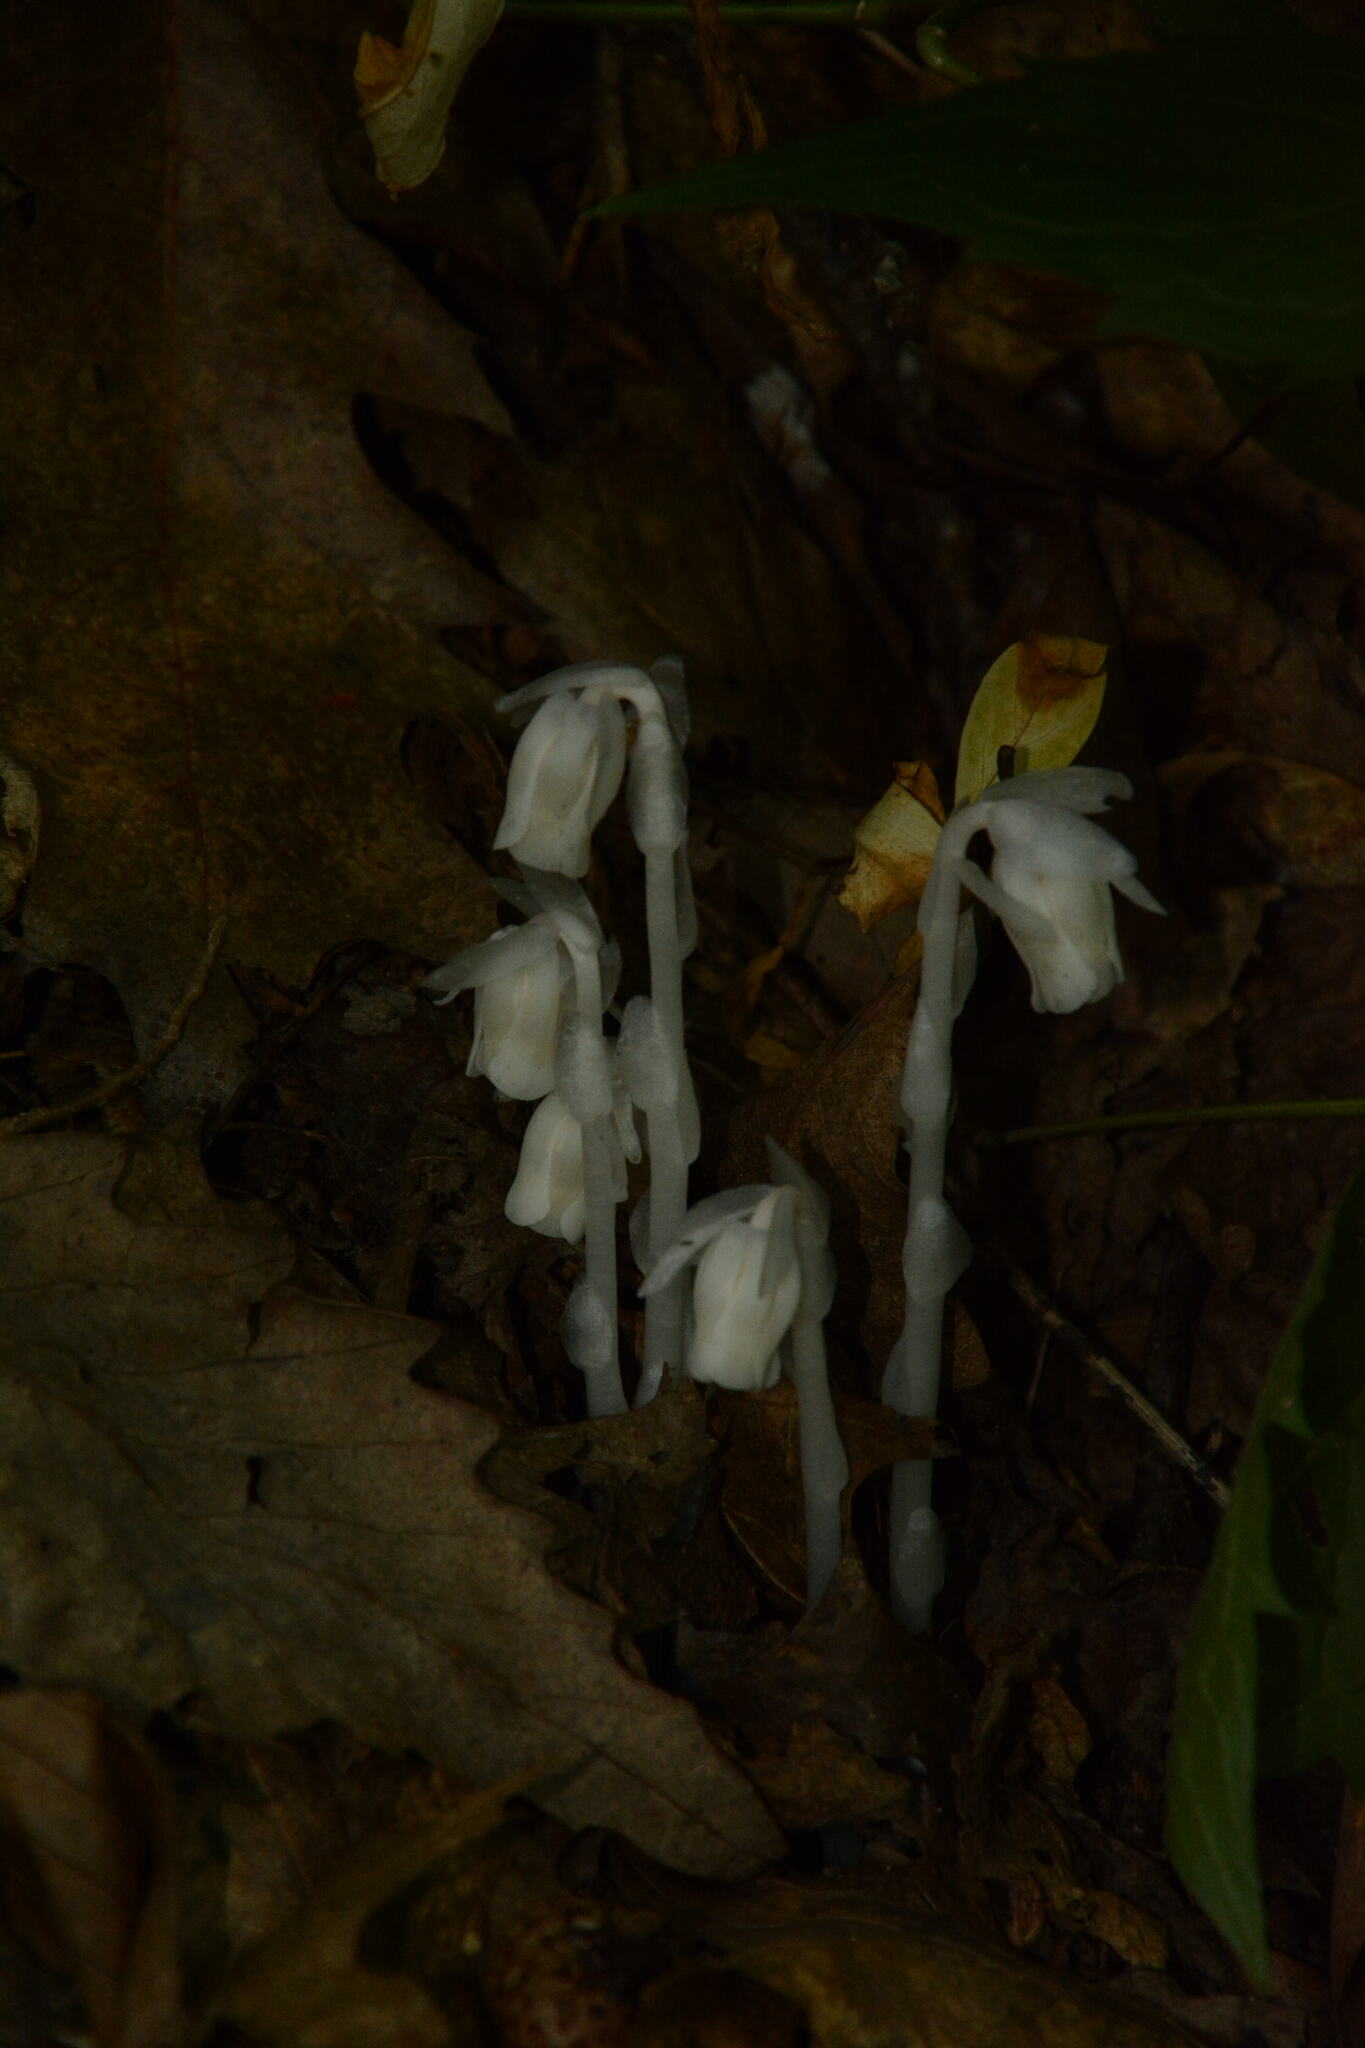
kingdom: Plantae
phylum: Tracheophyta
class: Magnoliopsida
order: Ericales
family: Ericaceae
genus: Monotropa
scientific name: Monotropa uniflora
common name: Convulsion root
